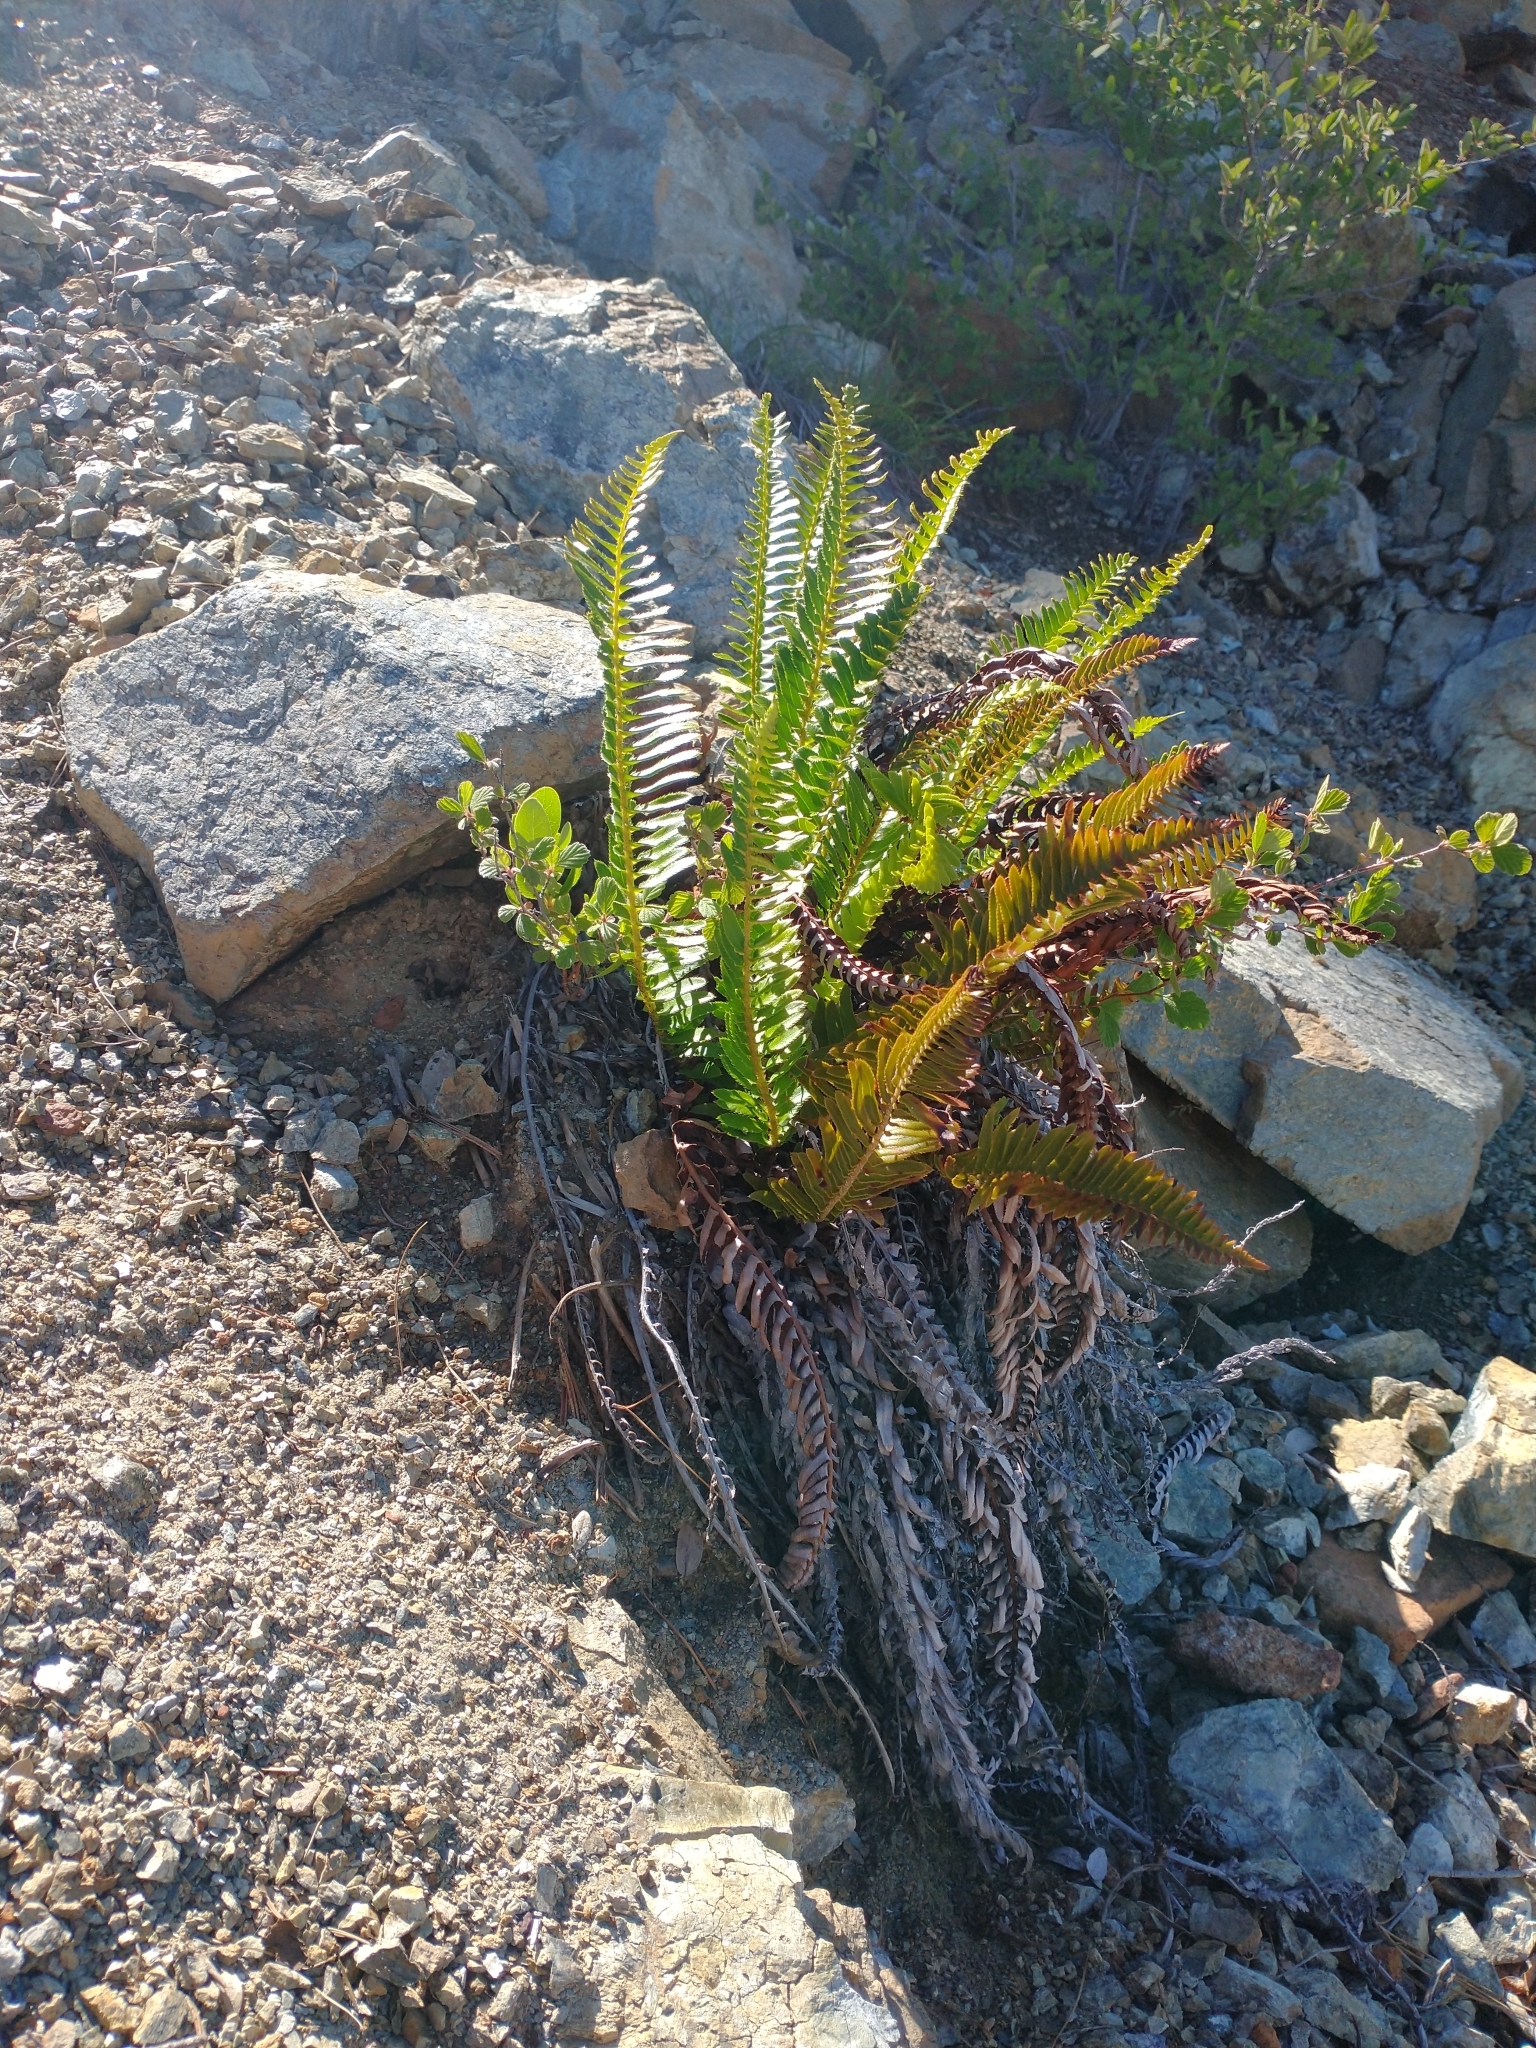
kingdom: Plantae
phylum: Tracheophyta
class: Polypodiopsida
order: Polypodiales
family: Dryopteridaceae
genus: Polystichum
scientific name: Polystichum imbricans
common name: Dwarf western sword fern
